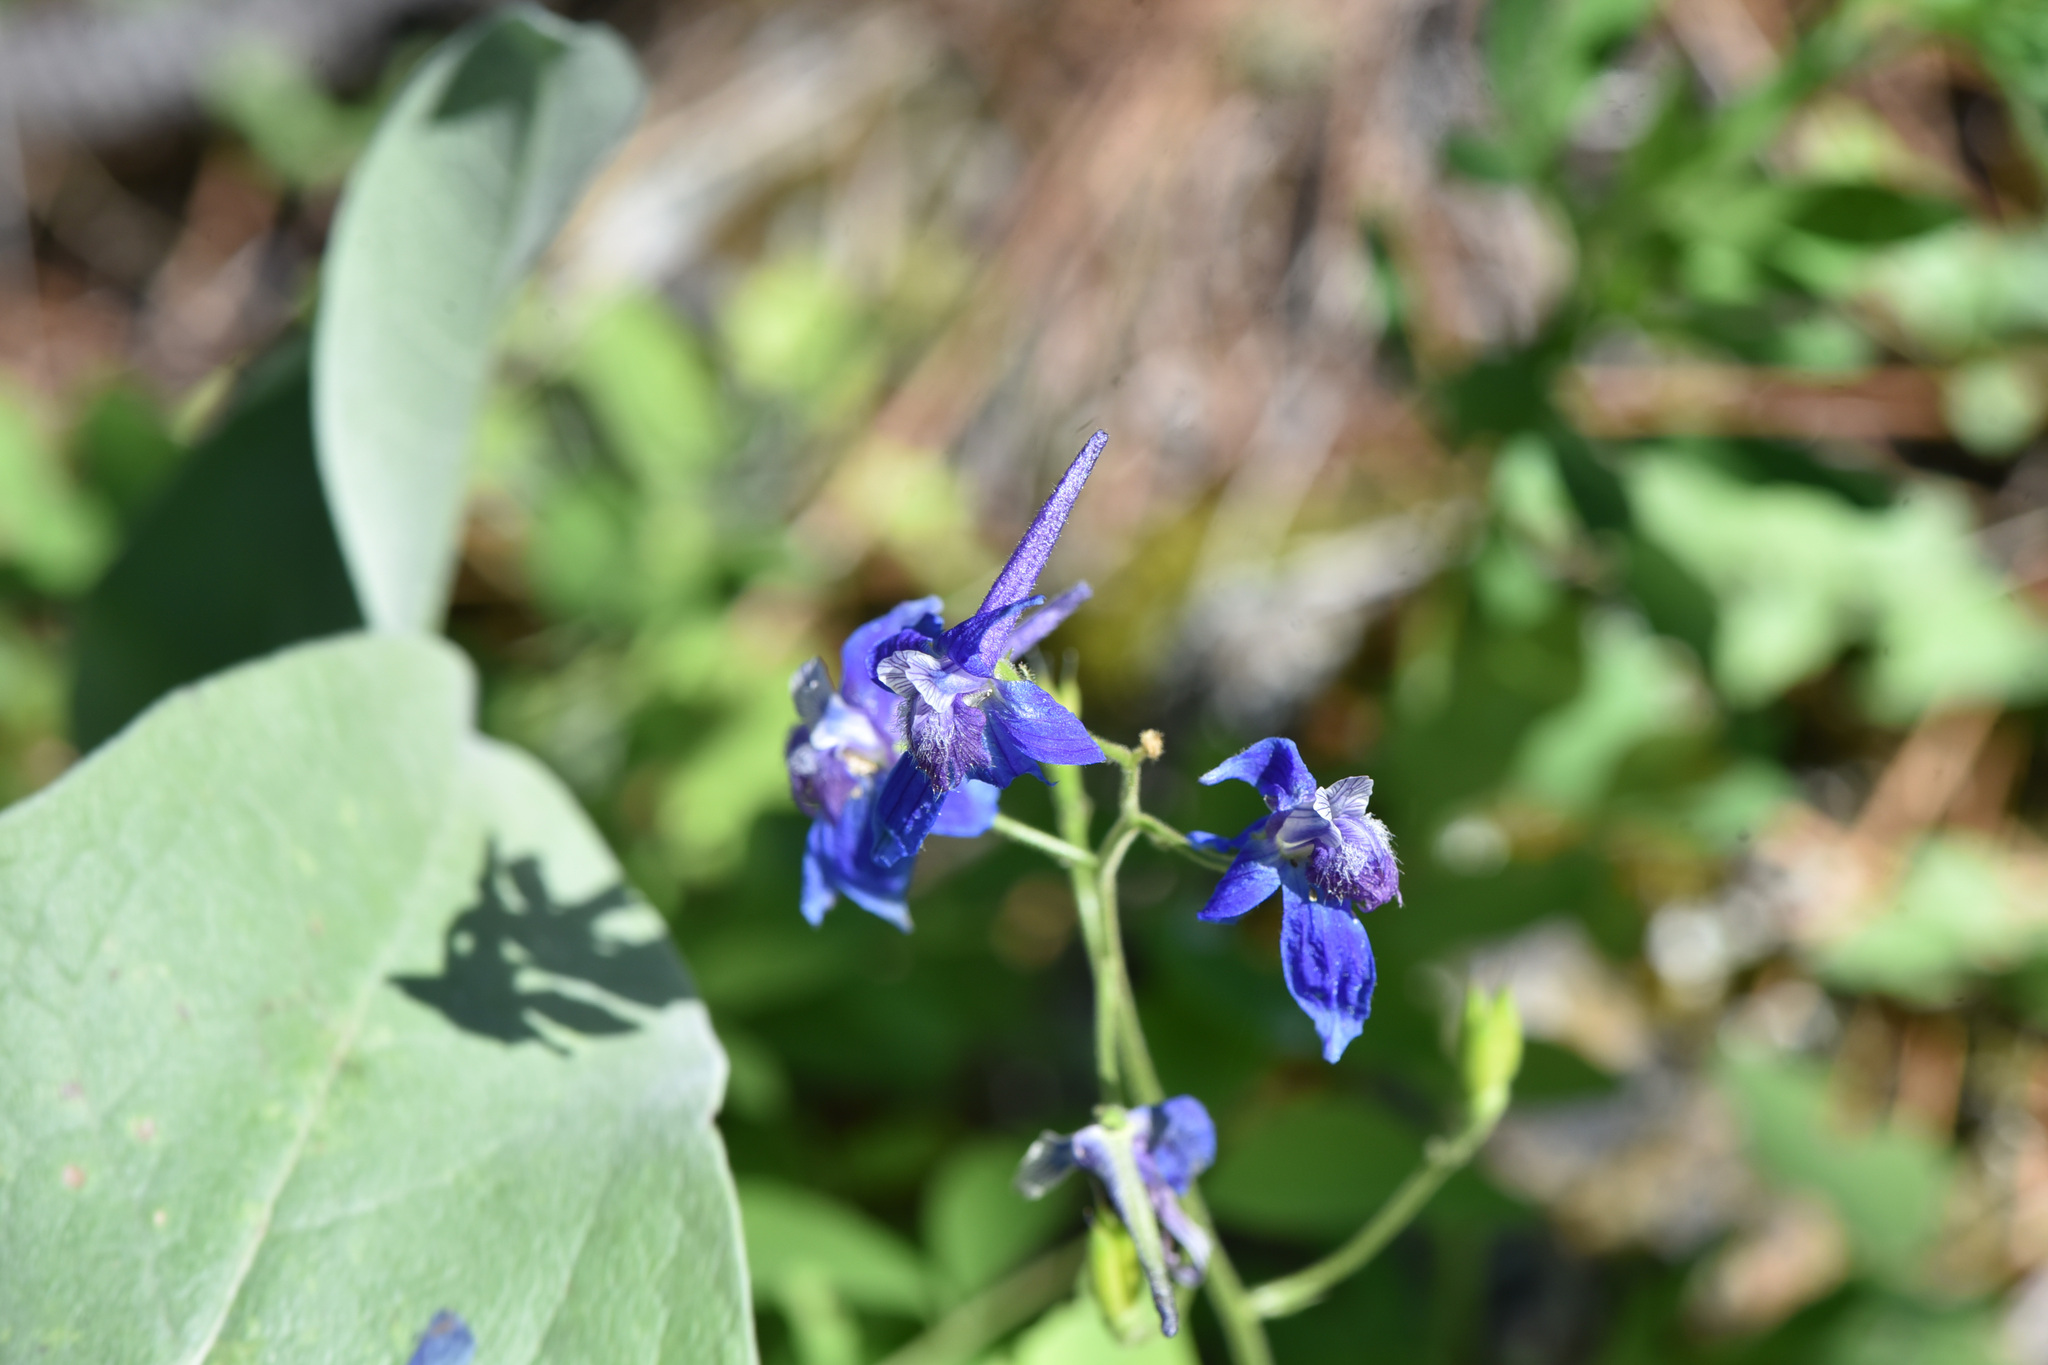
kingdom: Plantae
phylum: Tracheophyta
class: Magnoliopsida
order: Ranunculales
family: Ranunculaceae
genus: Delphinium
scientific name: Delphinium nuttallianum
